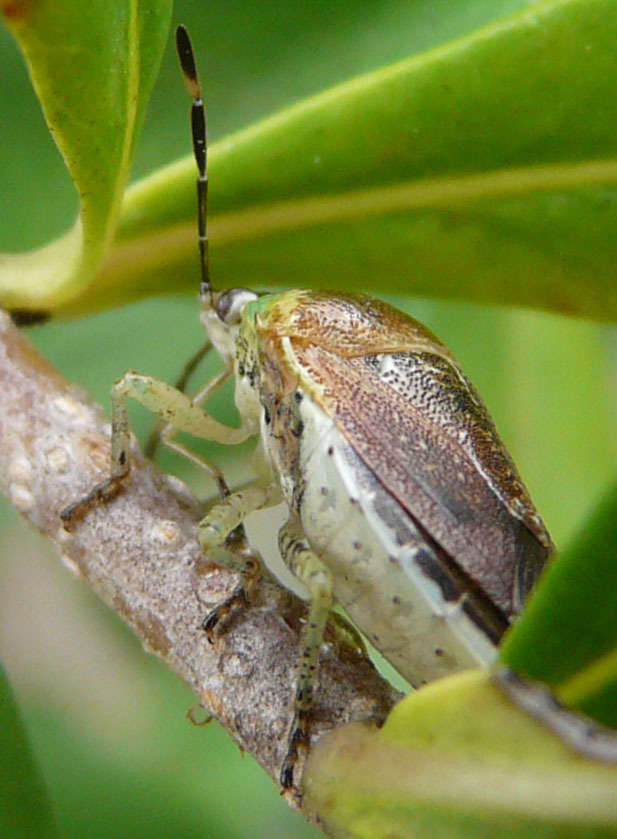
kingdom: Animalia
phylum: Arthropoda
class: Insecta
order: Hemiptera
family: Pentatomidae
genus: Monteithiella
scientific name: Monteithiella
